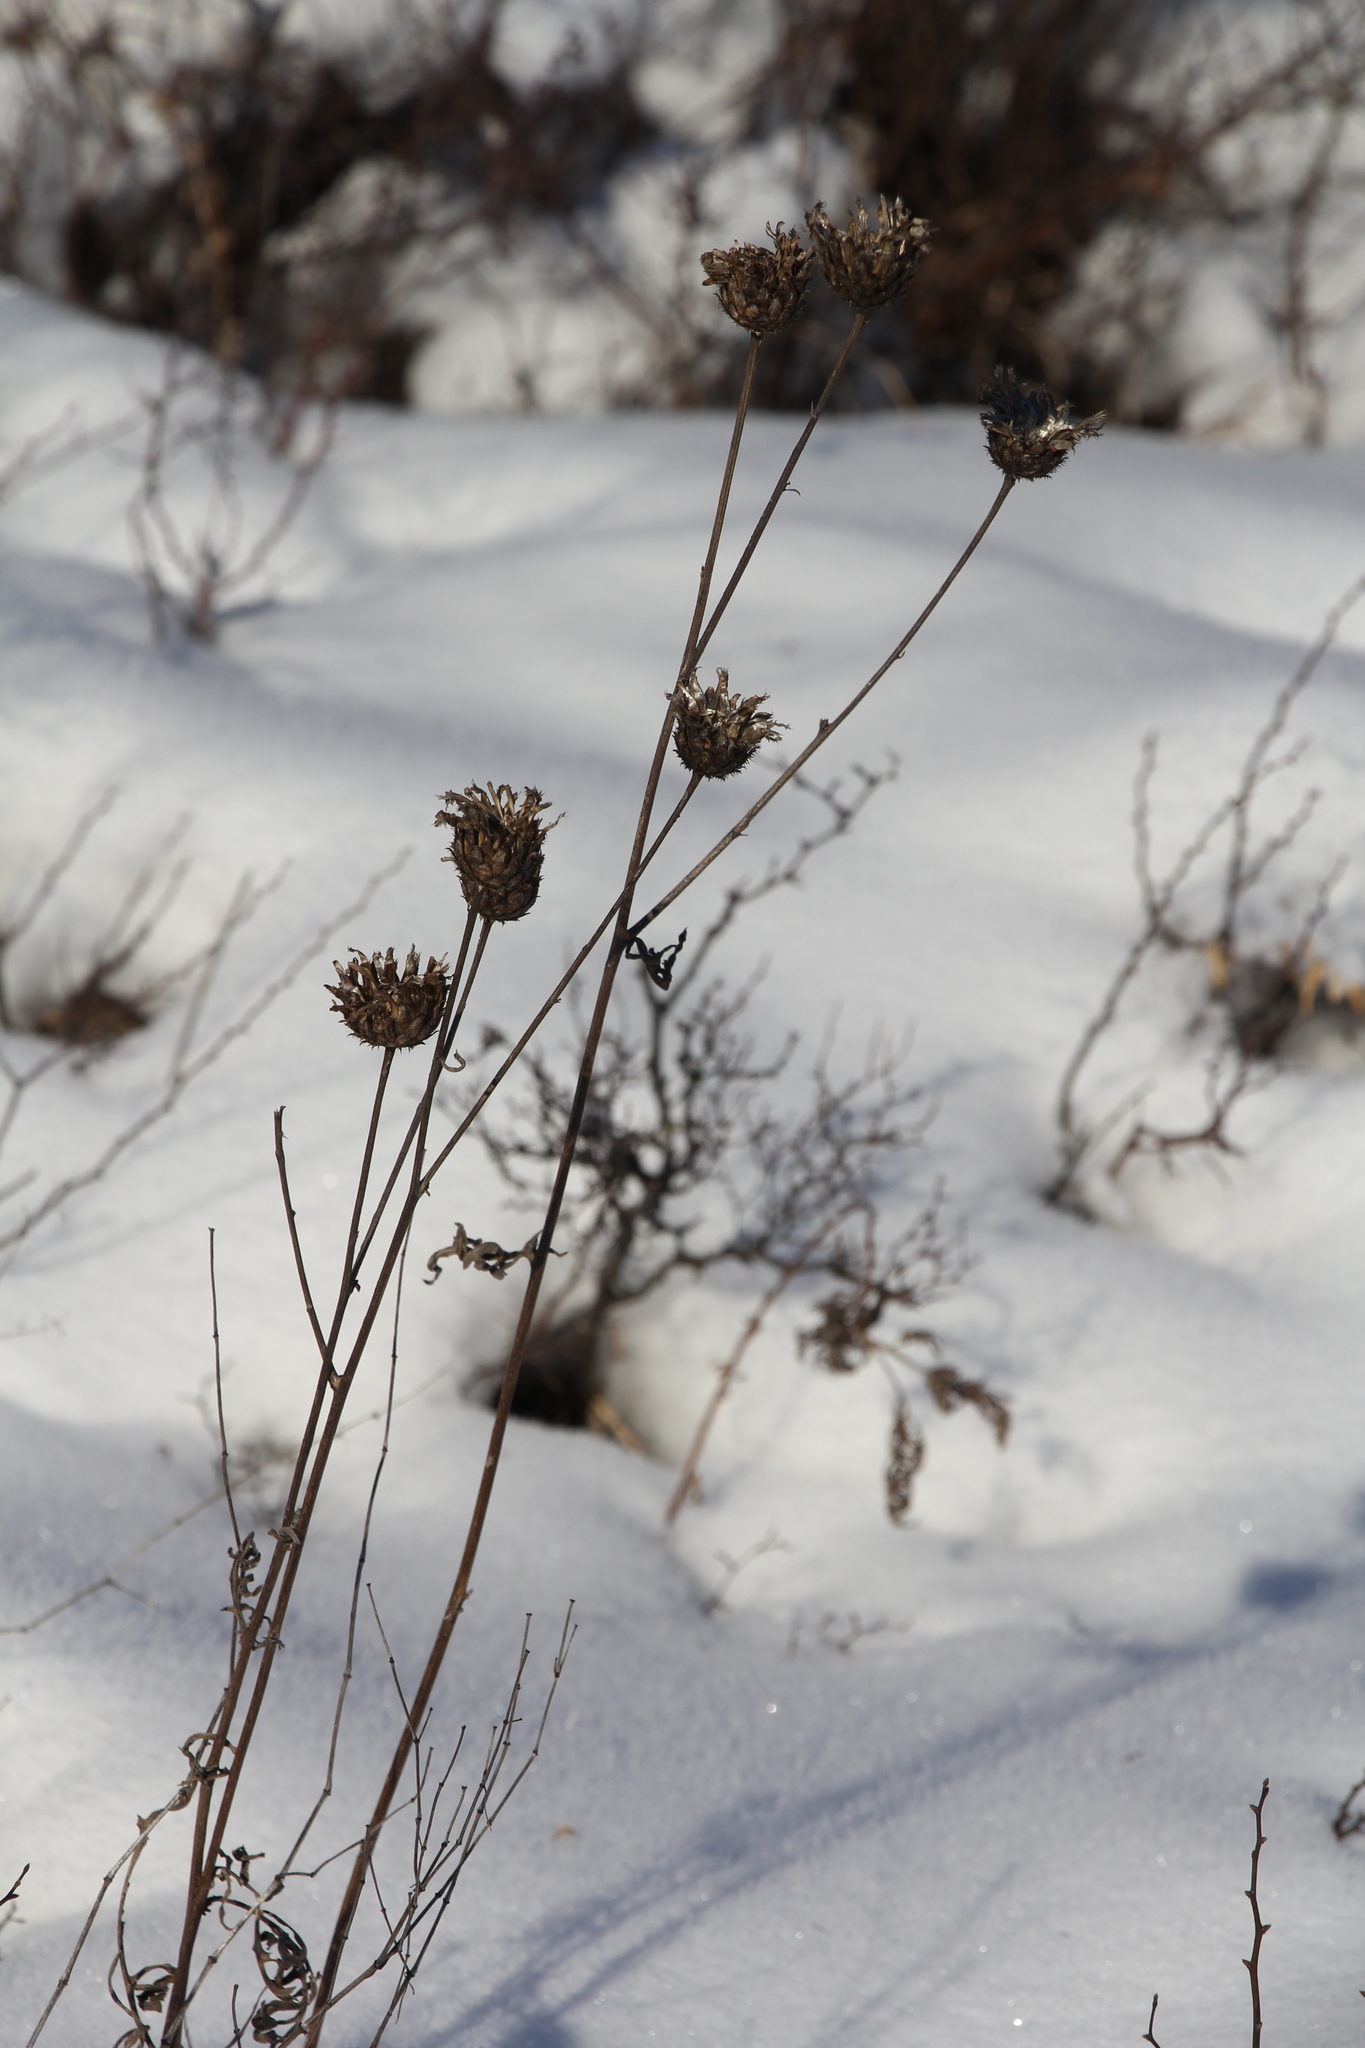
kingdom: Plantae
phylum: Tracheophyta
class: Magnoliopsida
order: Asterales
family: Asteraceae
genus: Centaurea
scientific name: Centaurea scabiosa
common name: Greater knapweed
